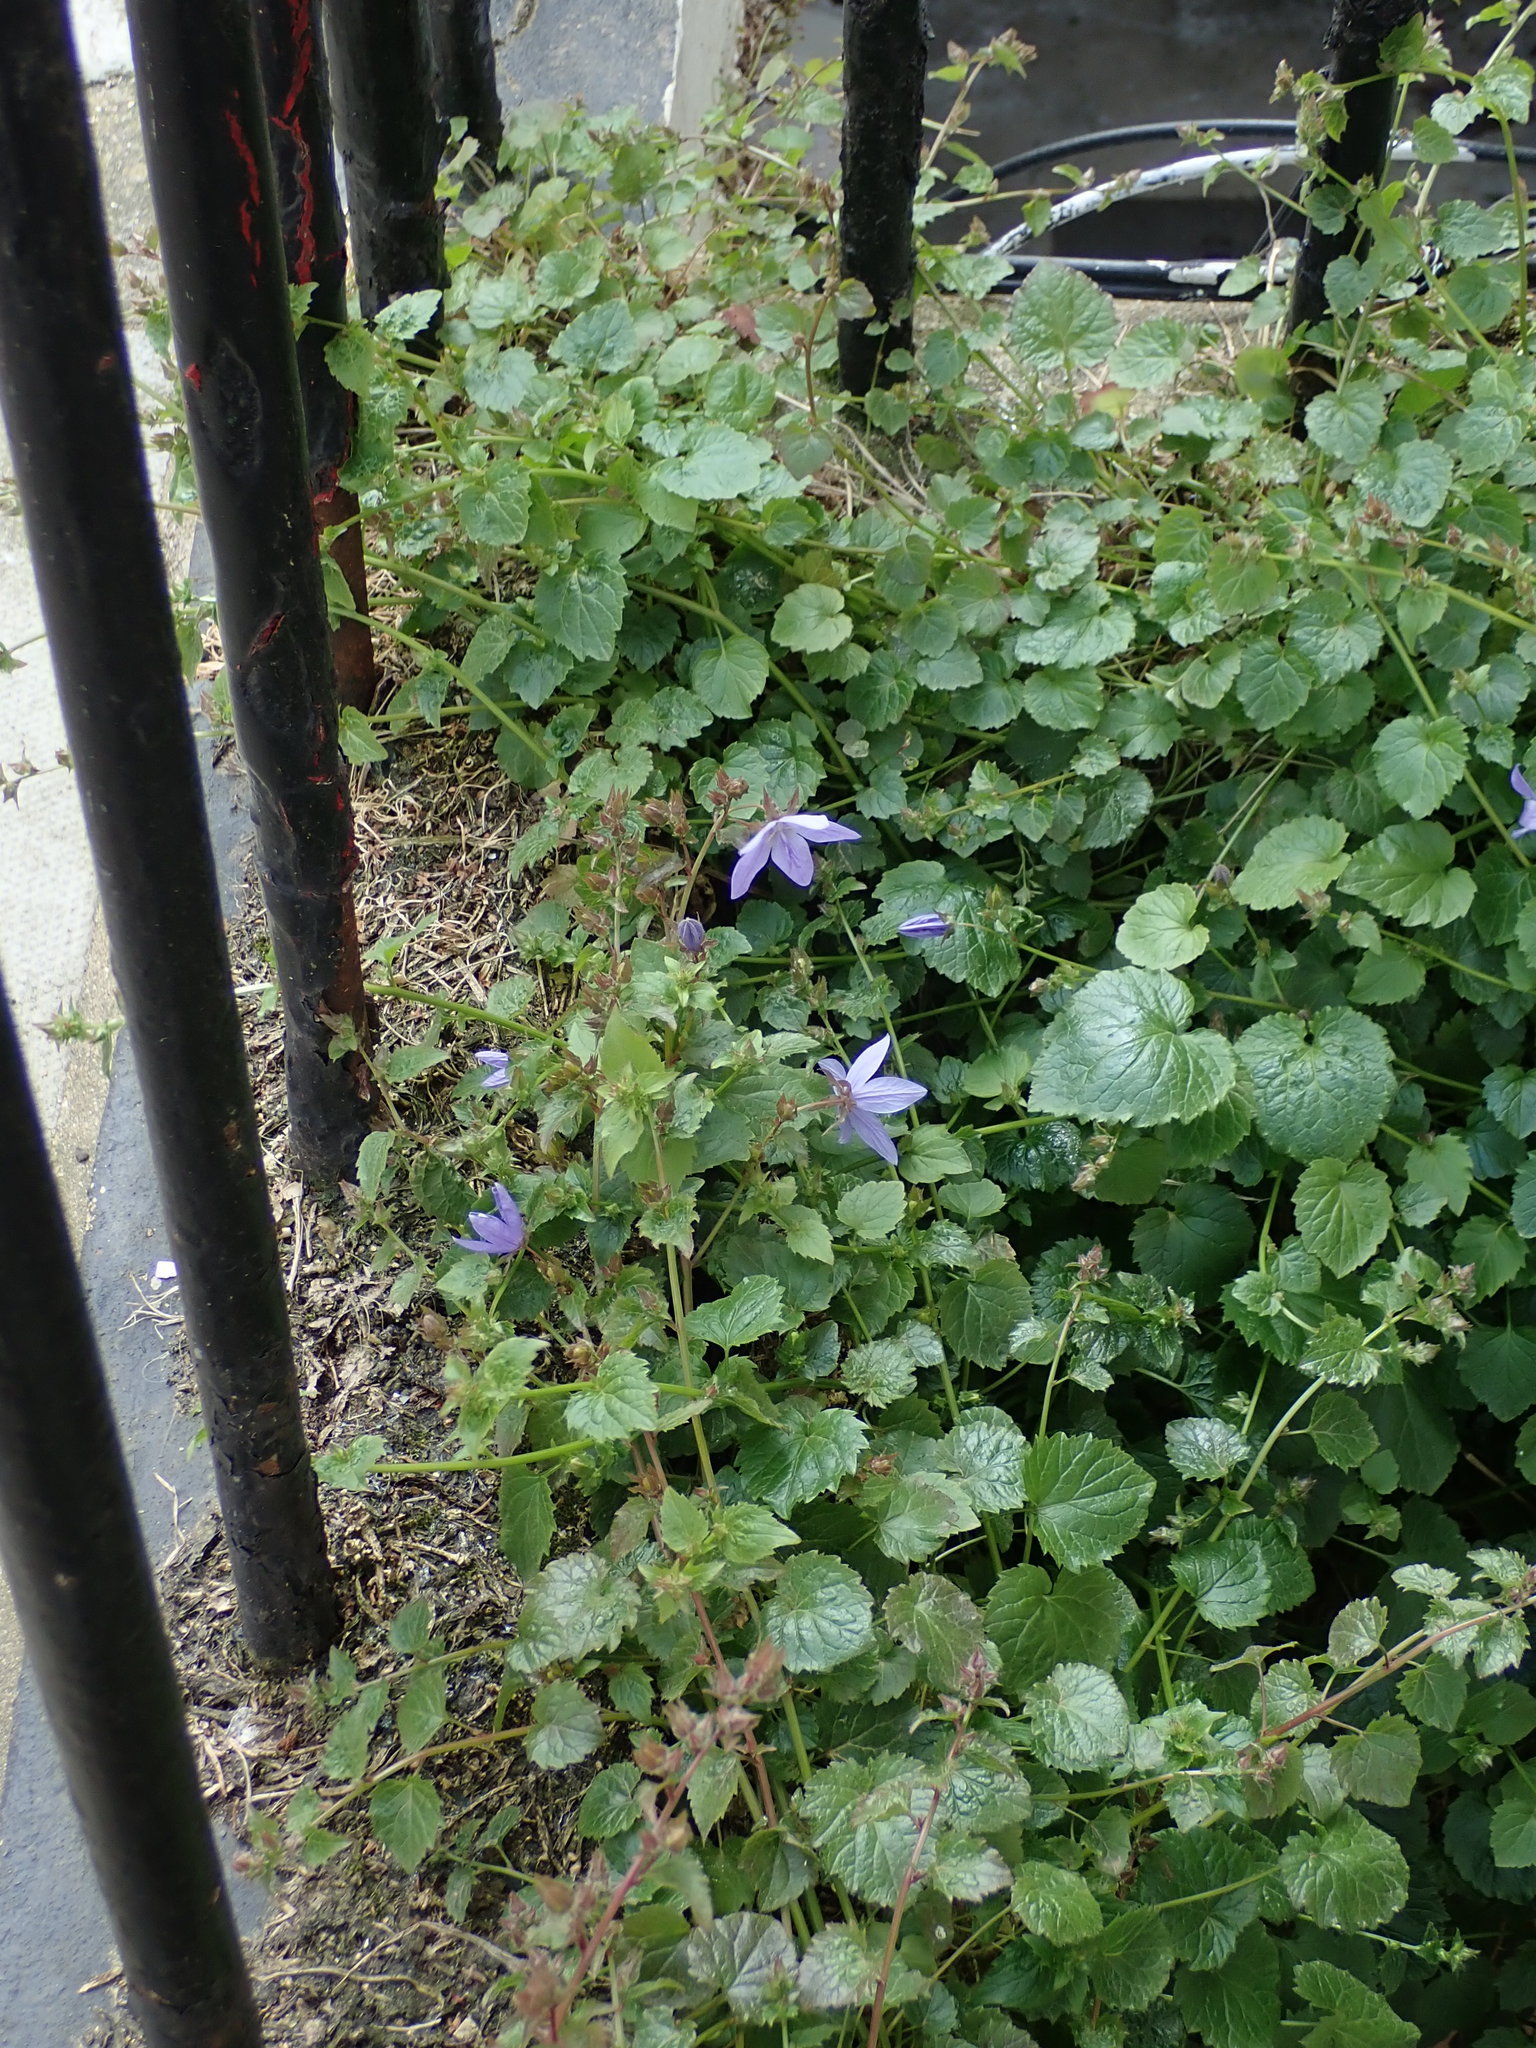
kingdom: Plantae
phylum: Tracheophyta
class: Magnoliopsida
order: Asterales
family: Campanulaceae
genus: Campanula
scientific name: Campanula poscharskyana
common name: Trailing bellflower
